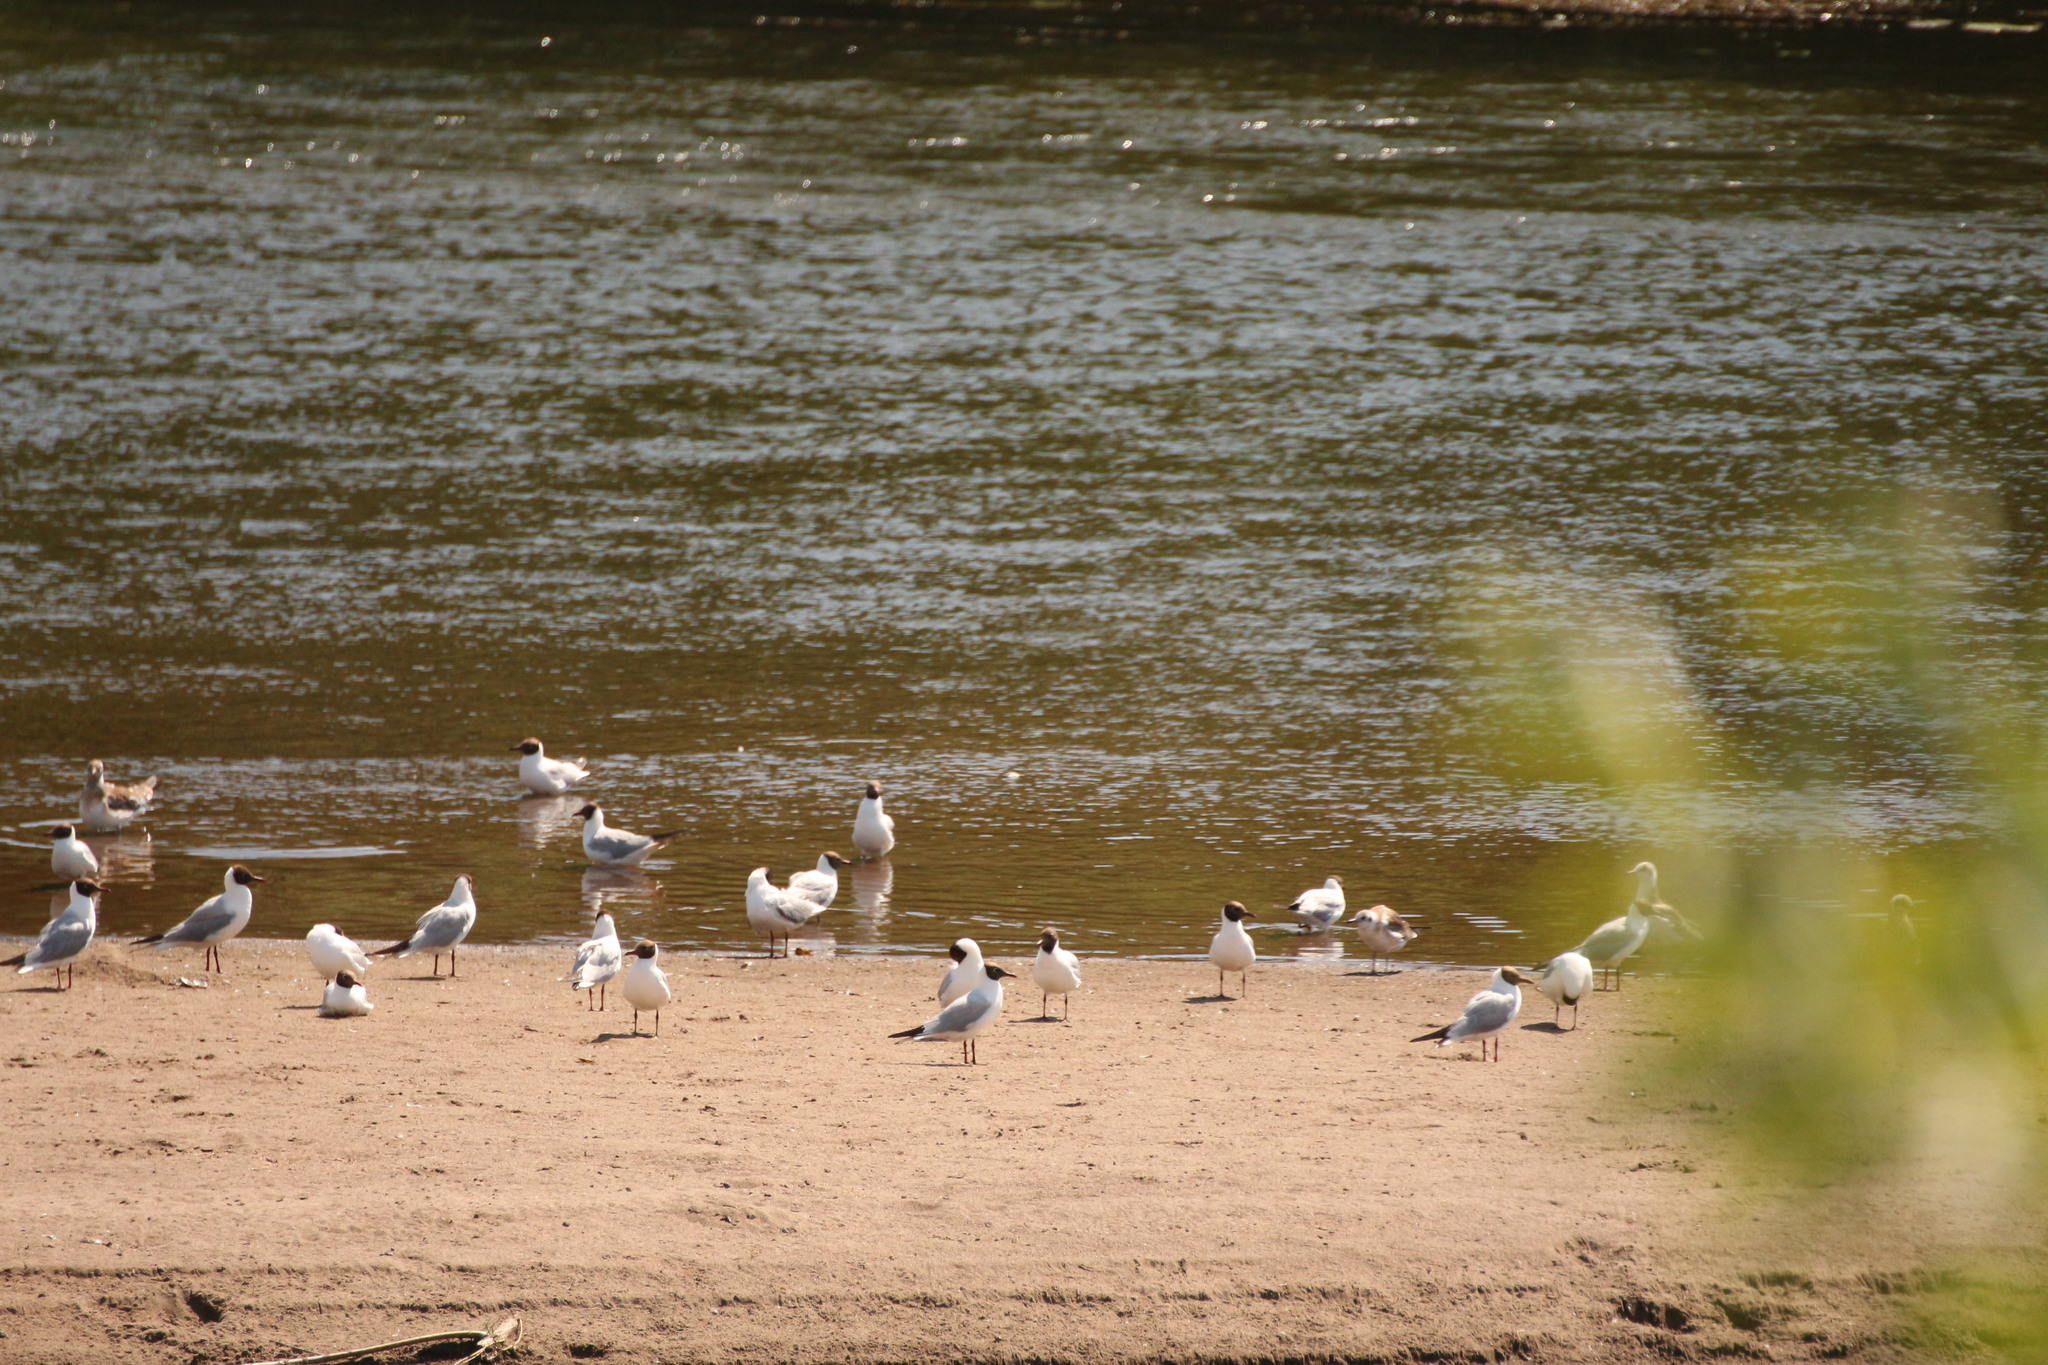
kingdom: Animalia
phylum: Chordata
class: Aves
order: Charadriiformes
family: Laridae
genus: Chroicocephalus
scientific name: Chroicocephalus ridibundus
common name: Black-headed gull
